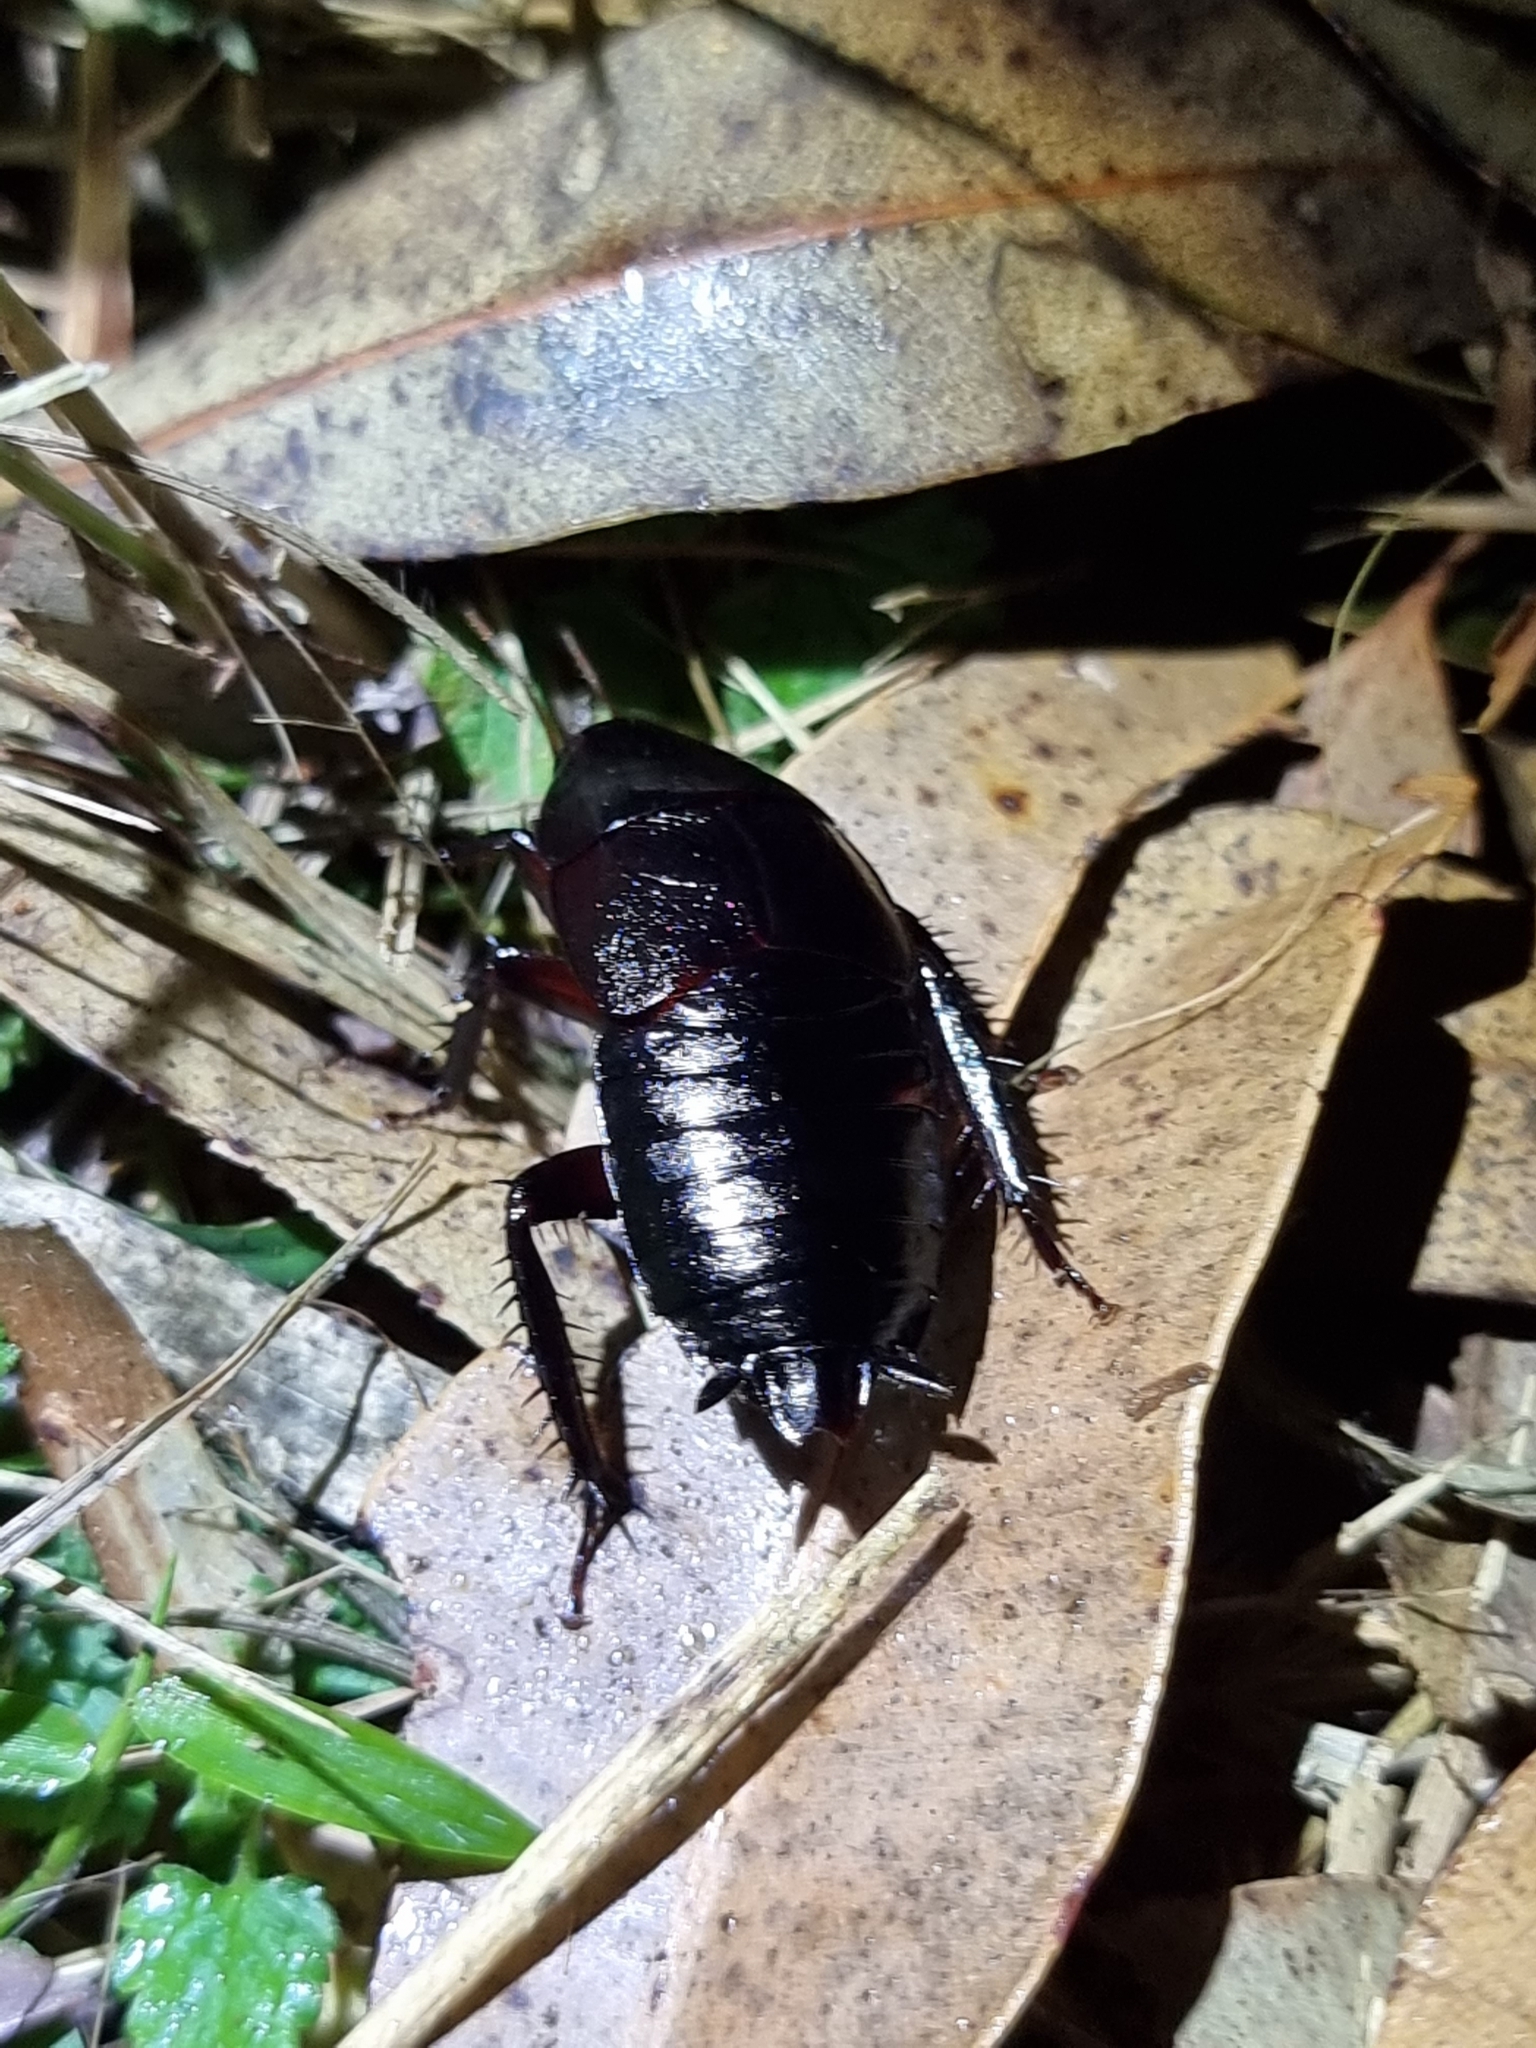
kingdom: Animalia
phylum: Arthropoda
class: Insecta
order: Blattodea
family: Blattidae
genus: Scabina
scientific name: Scabina antipoda
